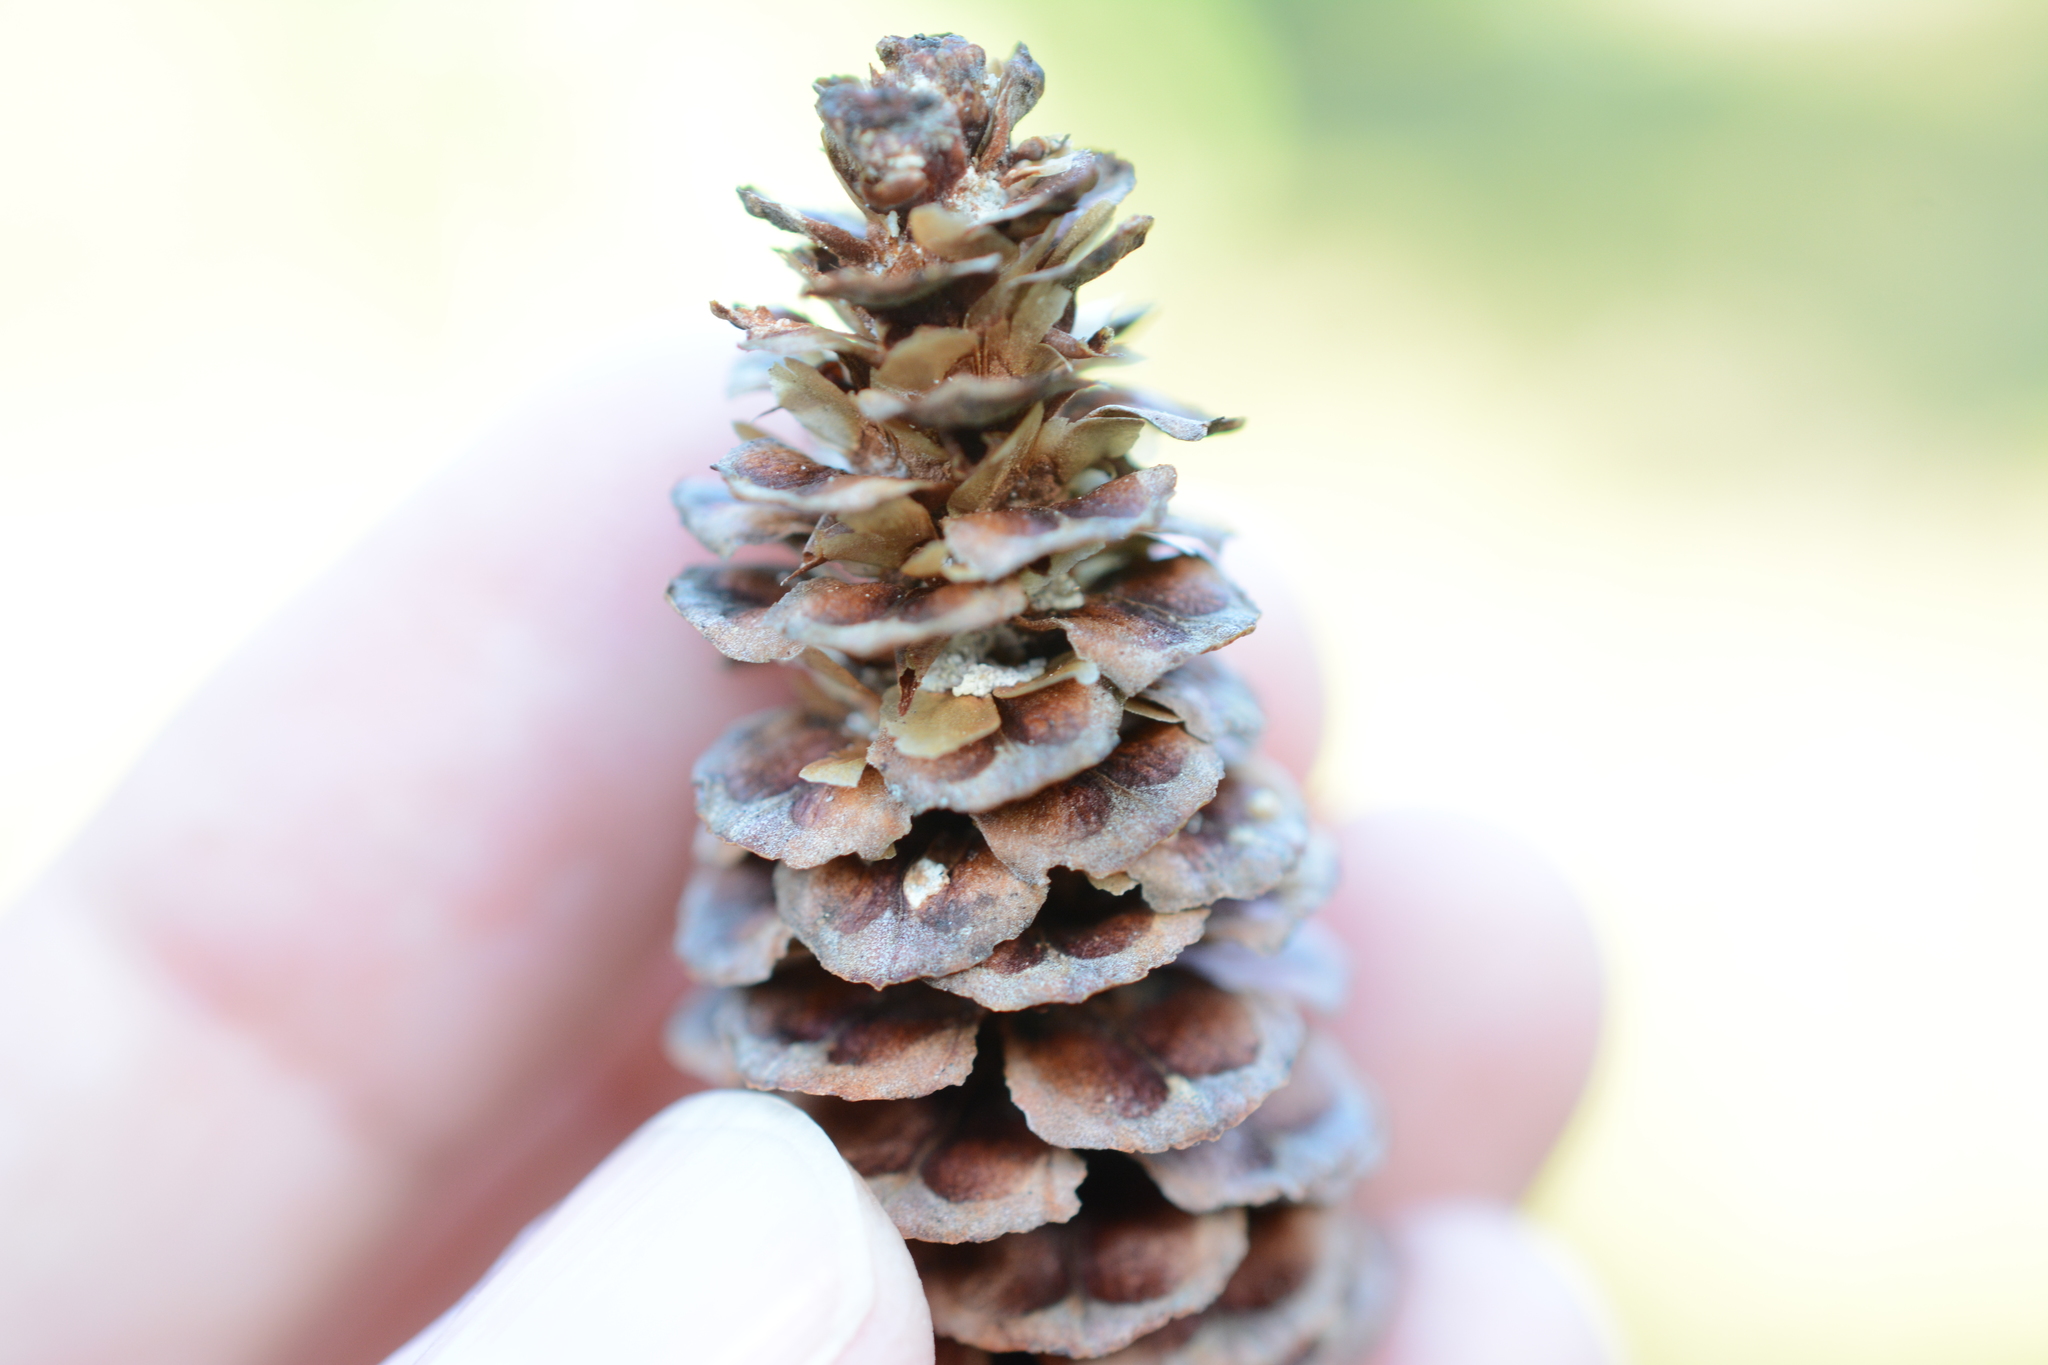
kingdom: Plantae
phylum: Tracheophyta
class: Pinopsida
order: Pinales
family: Pinaceae
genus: Tsuga
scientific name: Tsuga mertensiana
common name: Mountain hemlock
